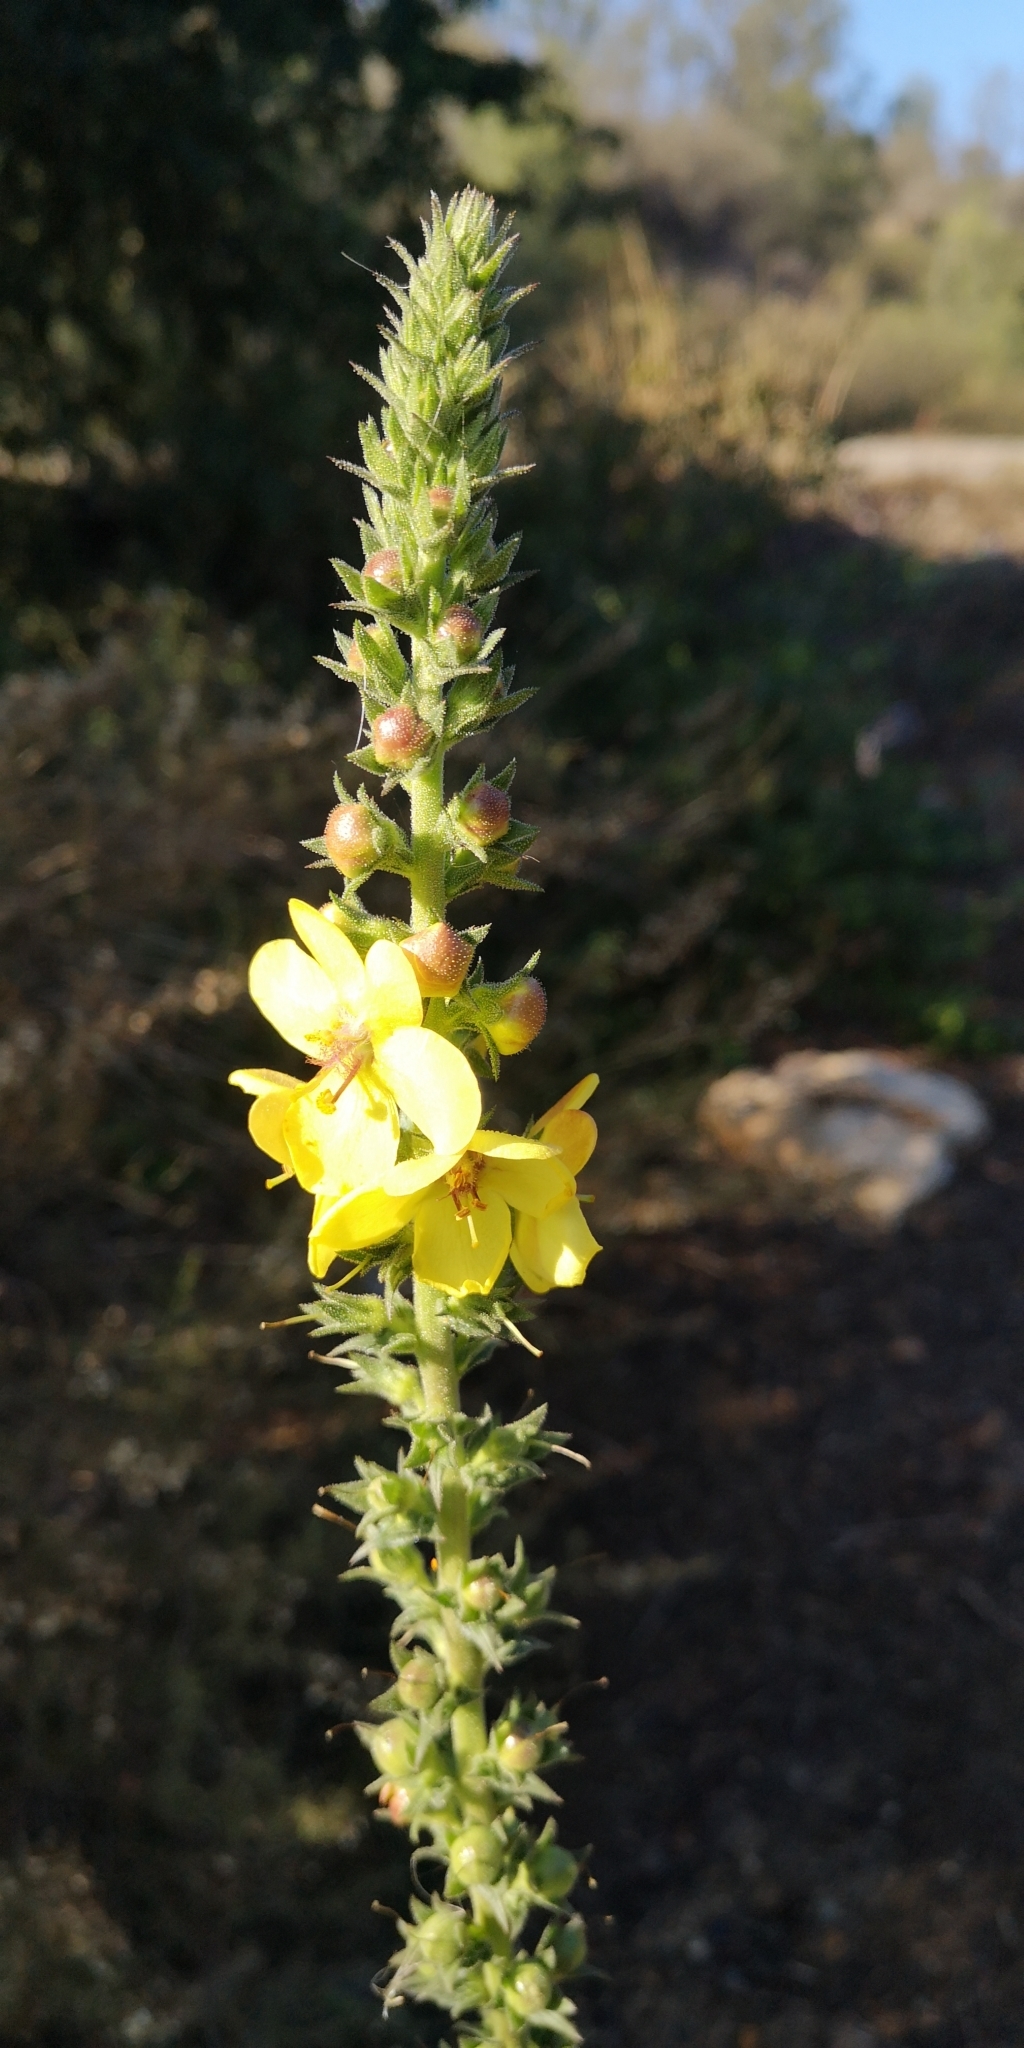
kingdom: Plantae
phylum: Tracheophyta
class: Magnoliopsida
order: Lamiales
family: Scrophulariaceae
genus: Verbascum
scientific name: Verbascum virgatum
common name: Twiggy mullein
